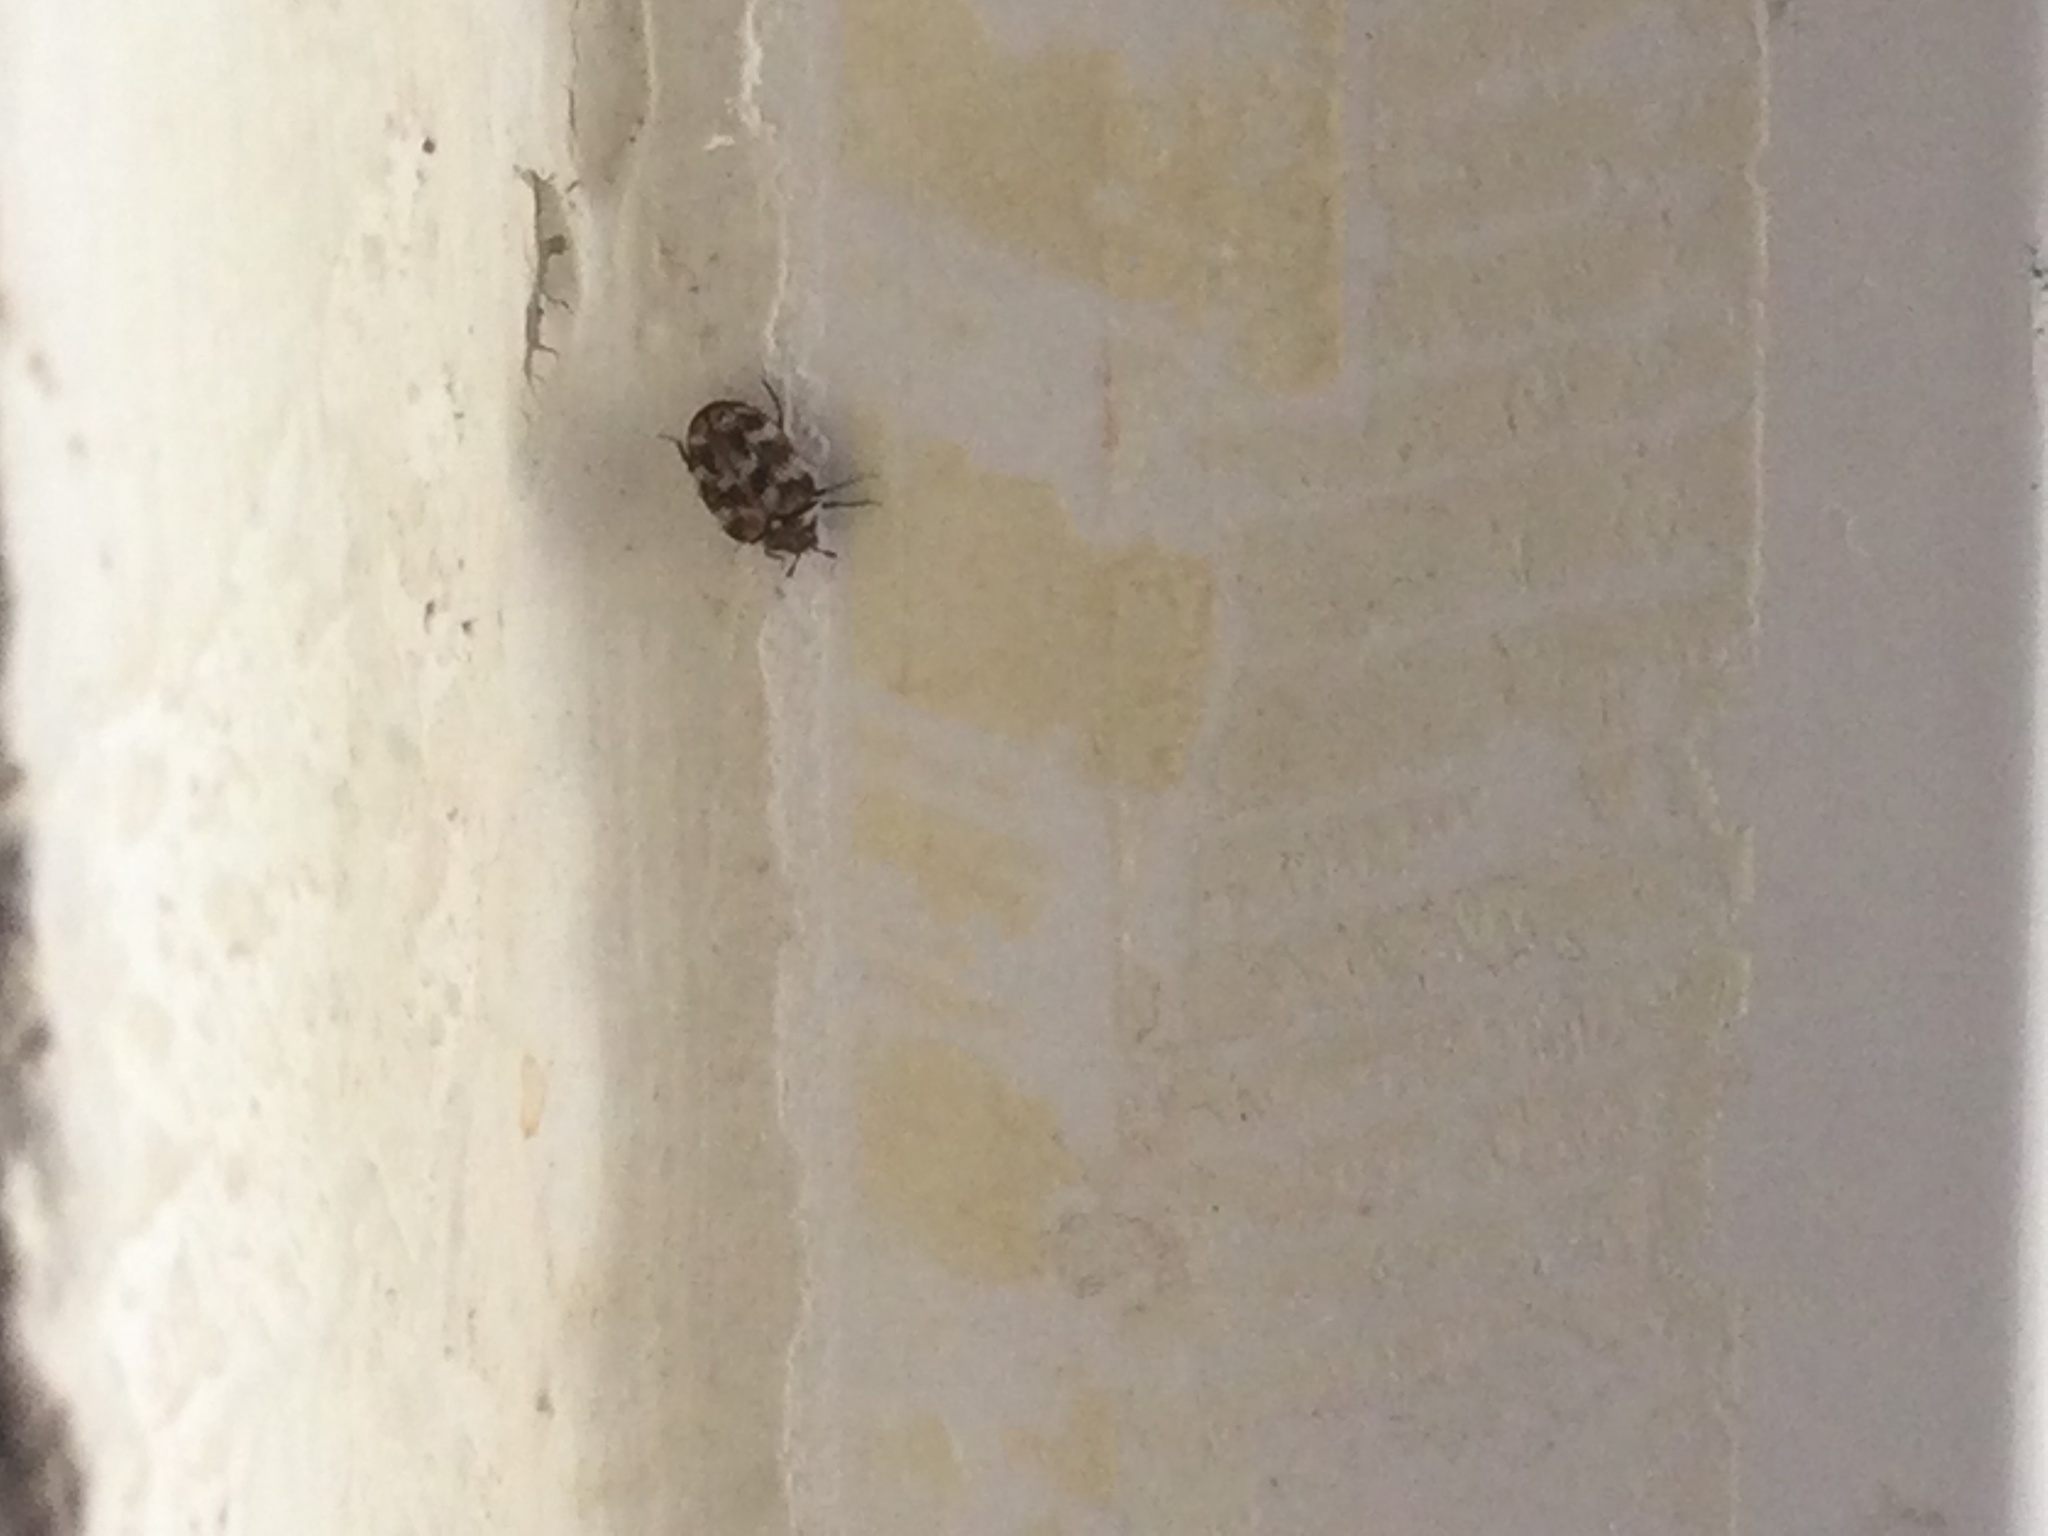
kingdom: Animalia
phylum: Arthropoda
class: Insecta
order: Coleoptera
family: Dermestidae
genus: Anthrenus
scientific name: Anthrenus verbasci
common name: Varied carpet beetle
